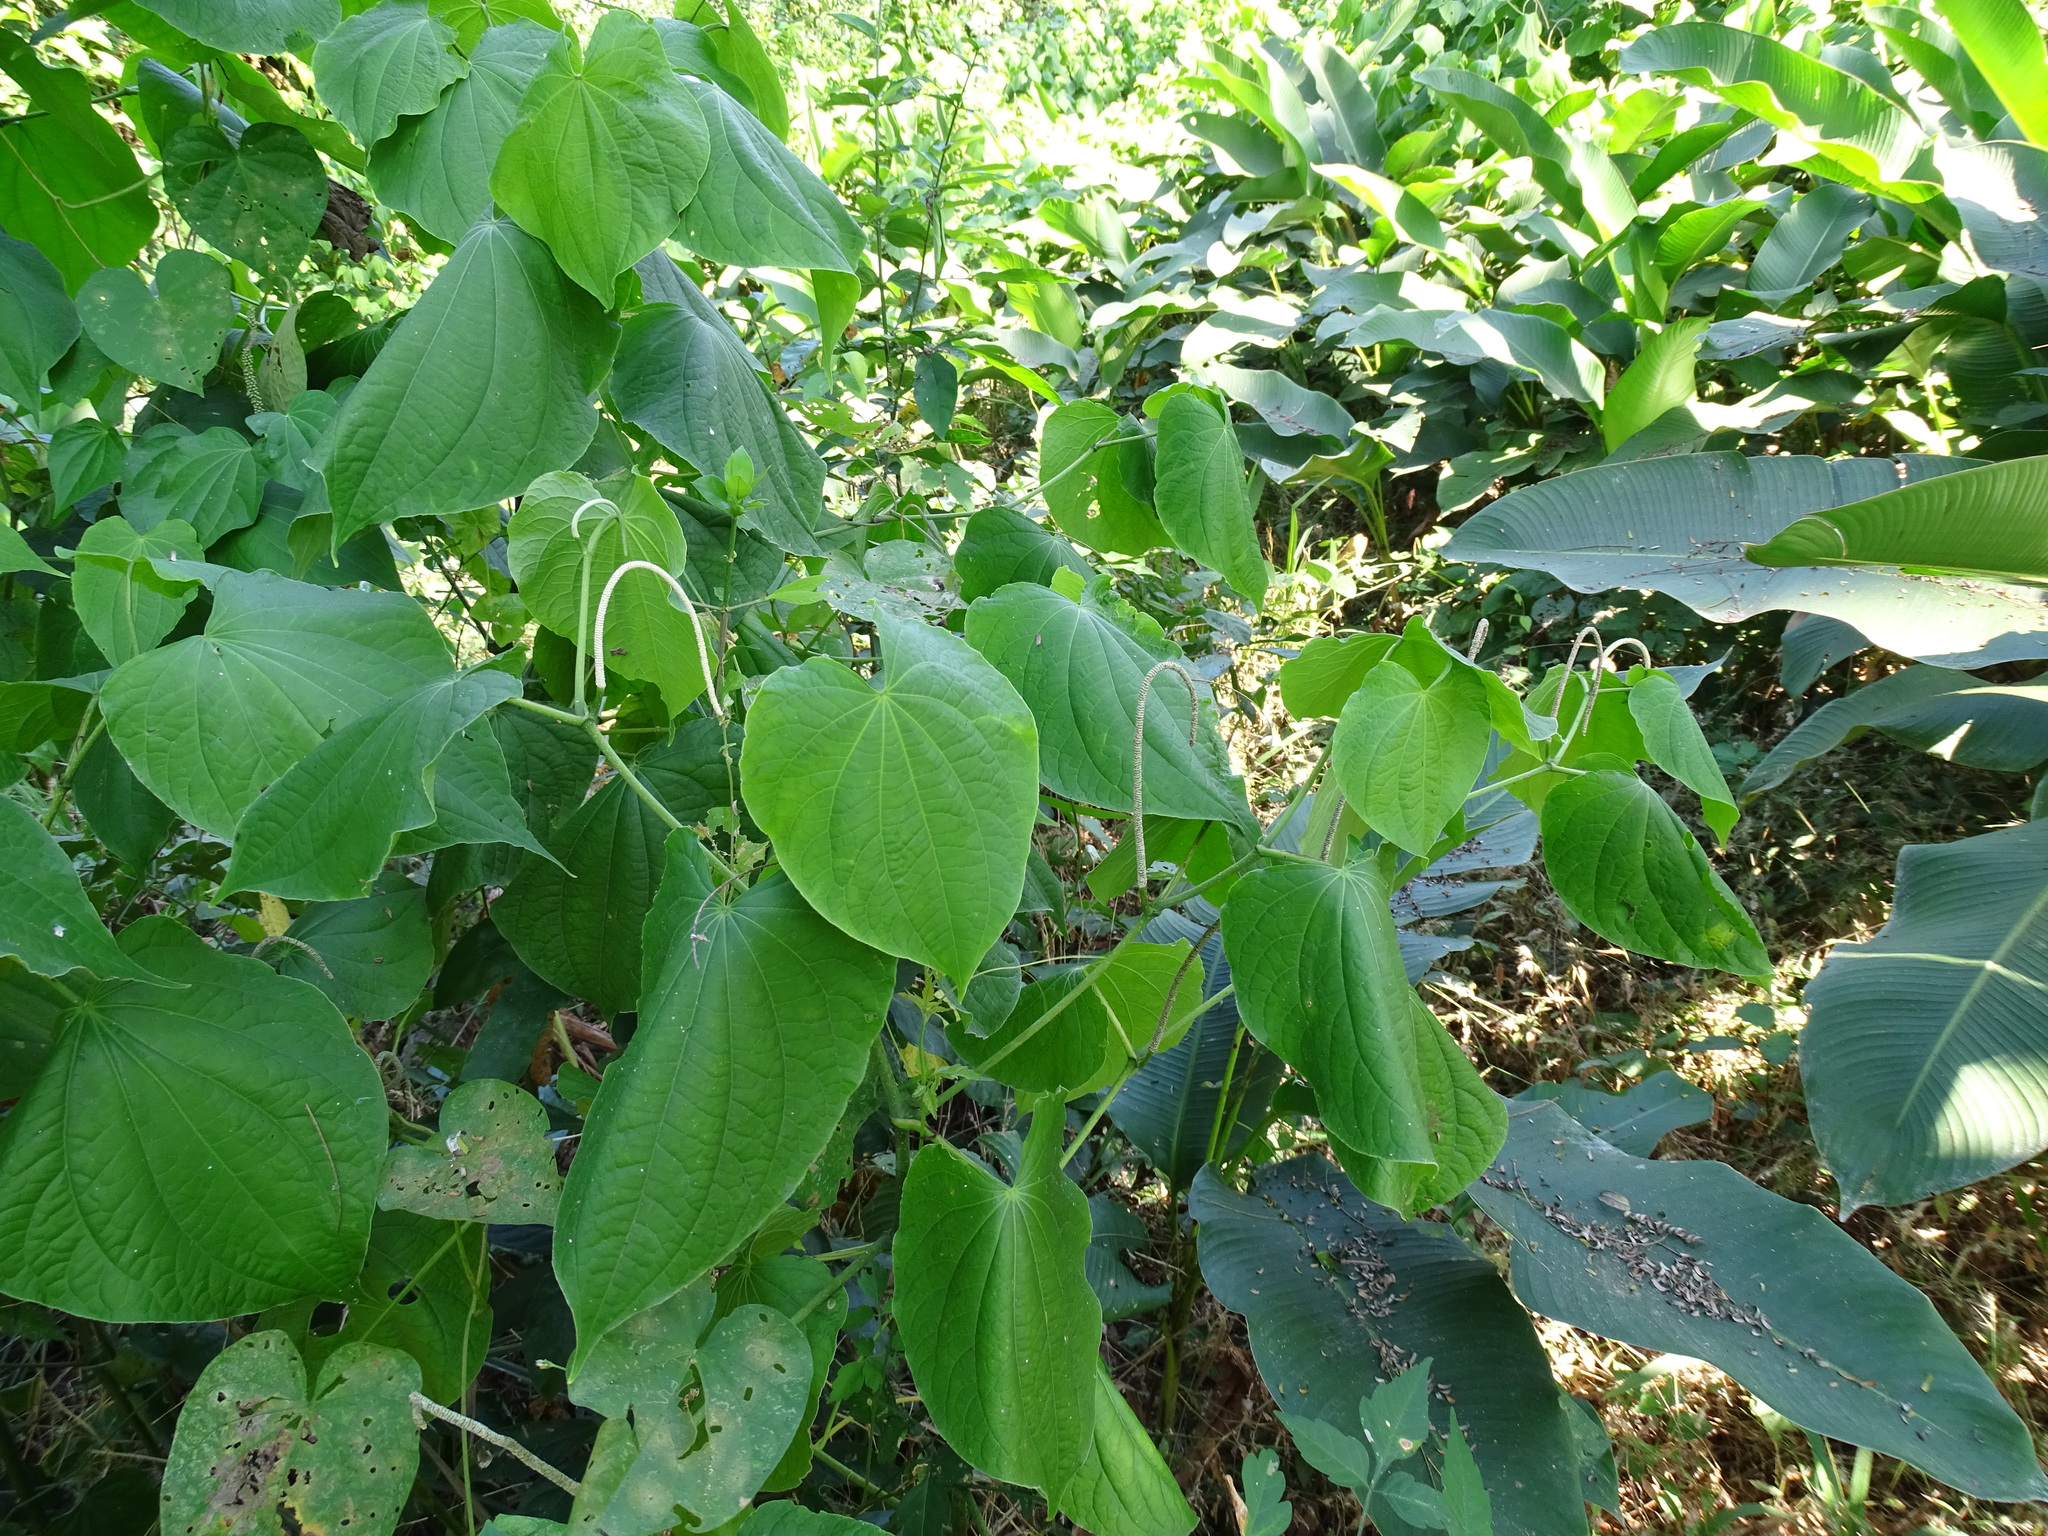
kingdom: Plantae
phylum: Tracheophyta
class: Magnoliopsida
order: Piperales
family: Piperaceae
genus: Piper
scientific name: Piper marginatum
